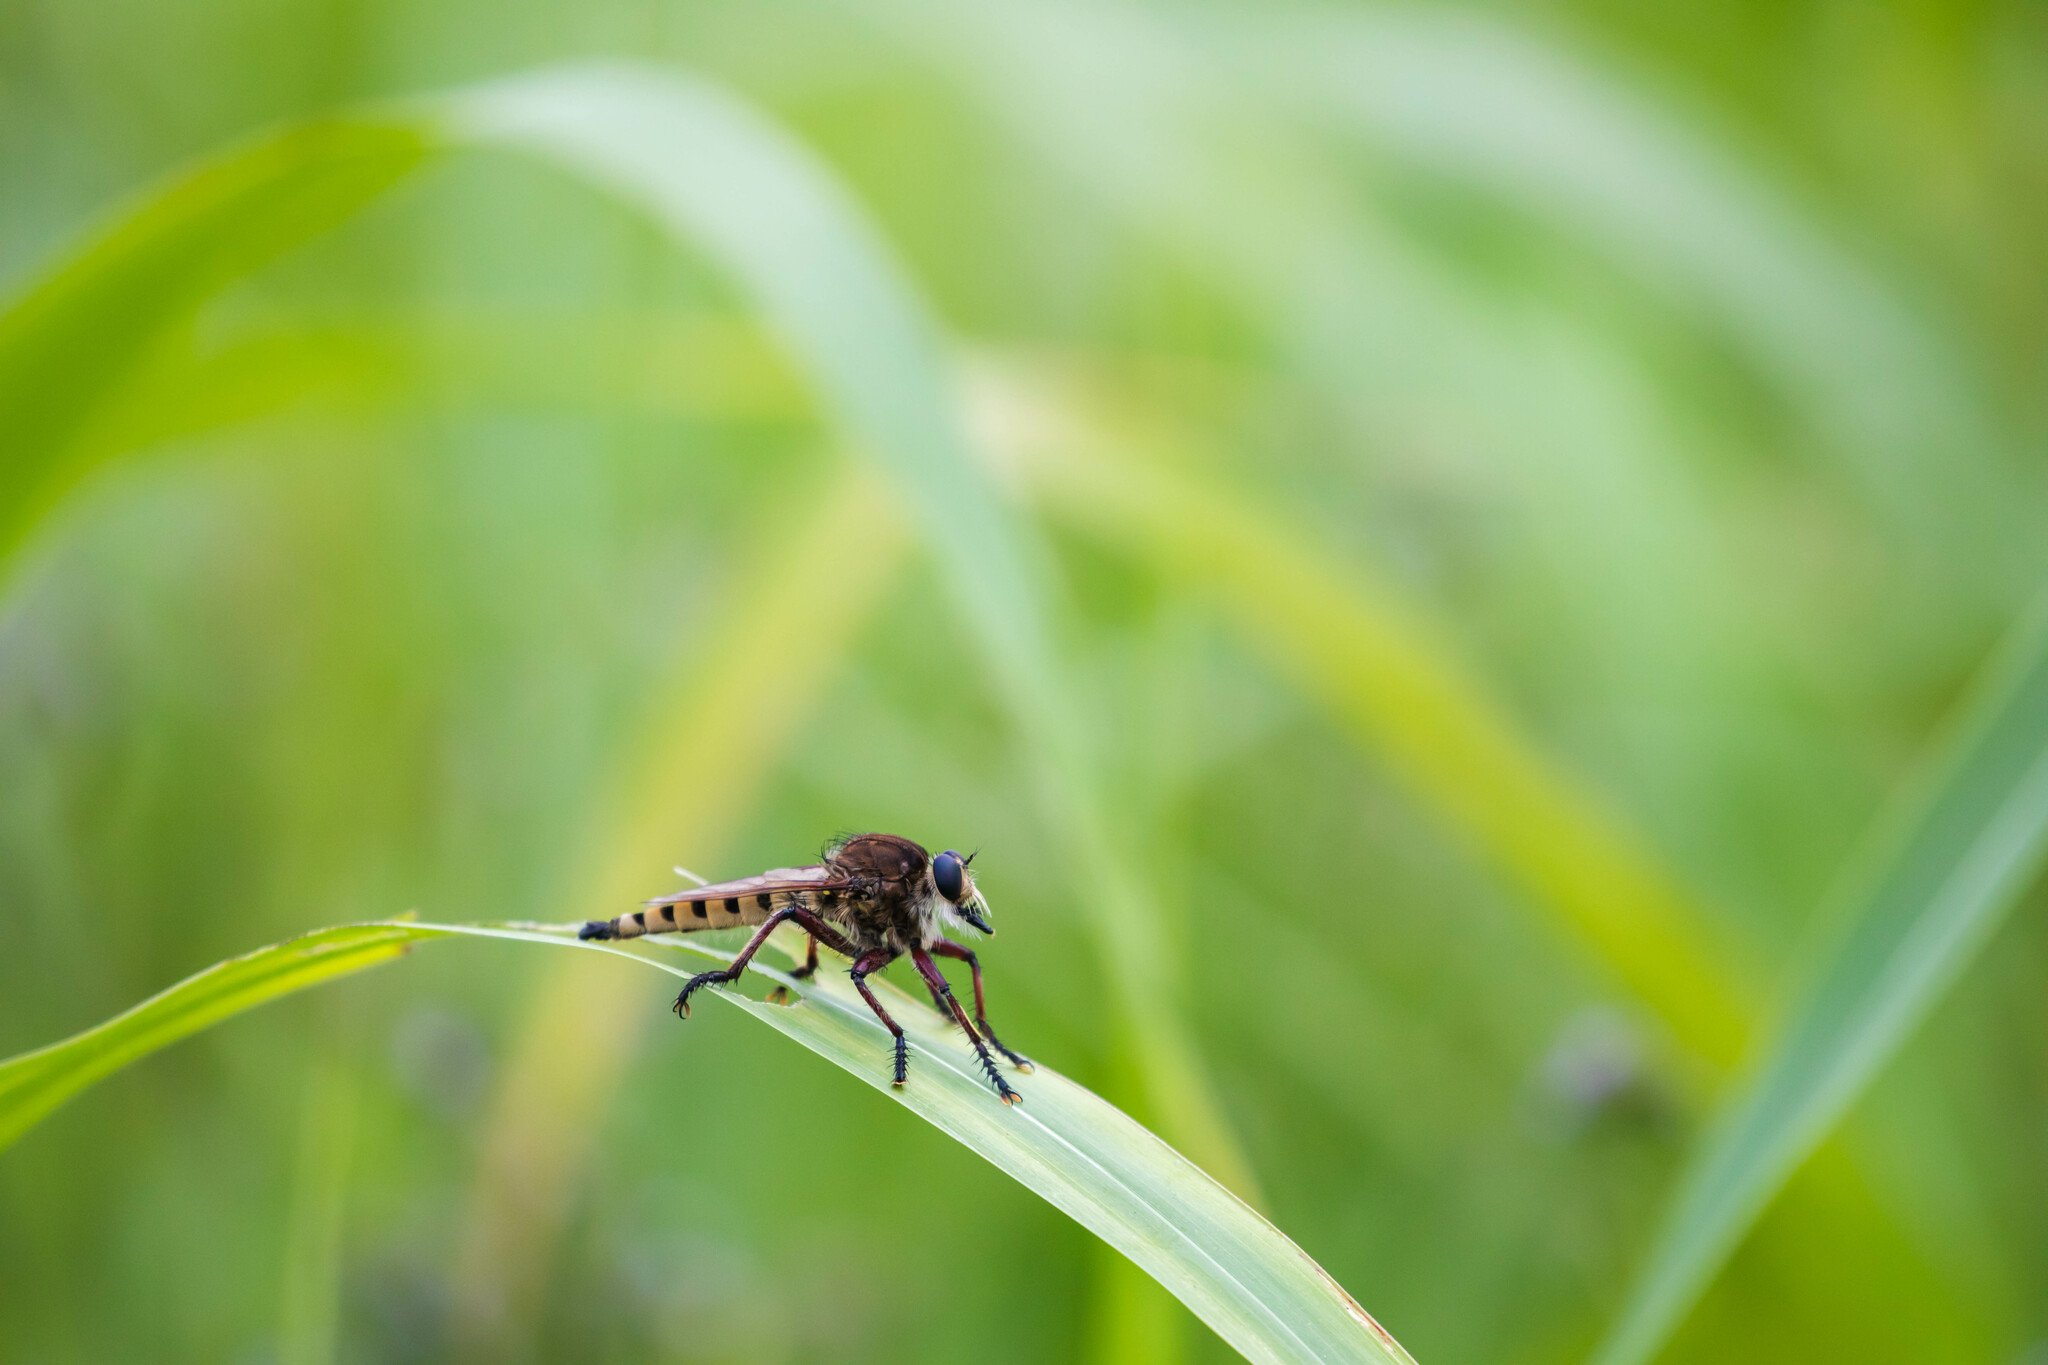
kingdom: Animalia
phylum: Arthropoda
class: Insecta
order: Diptera
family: Asilidae
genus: Promachus
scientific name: Promachus hinei
